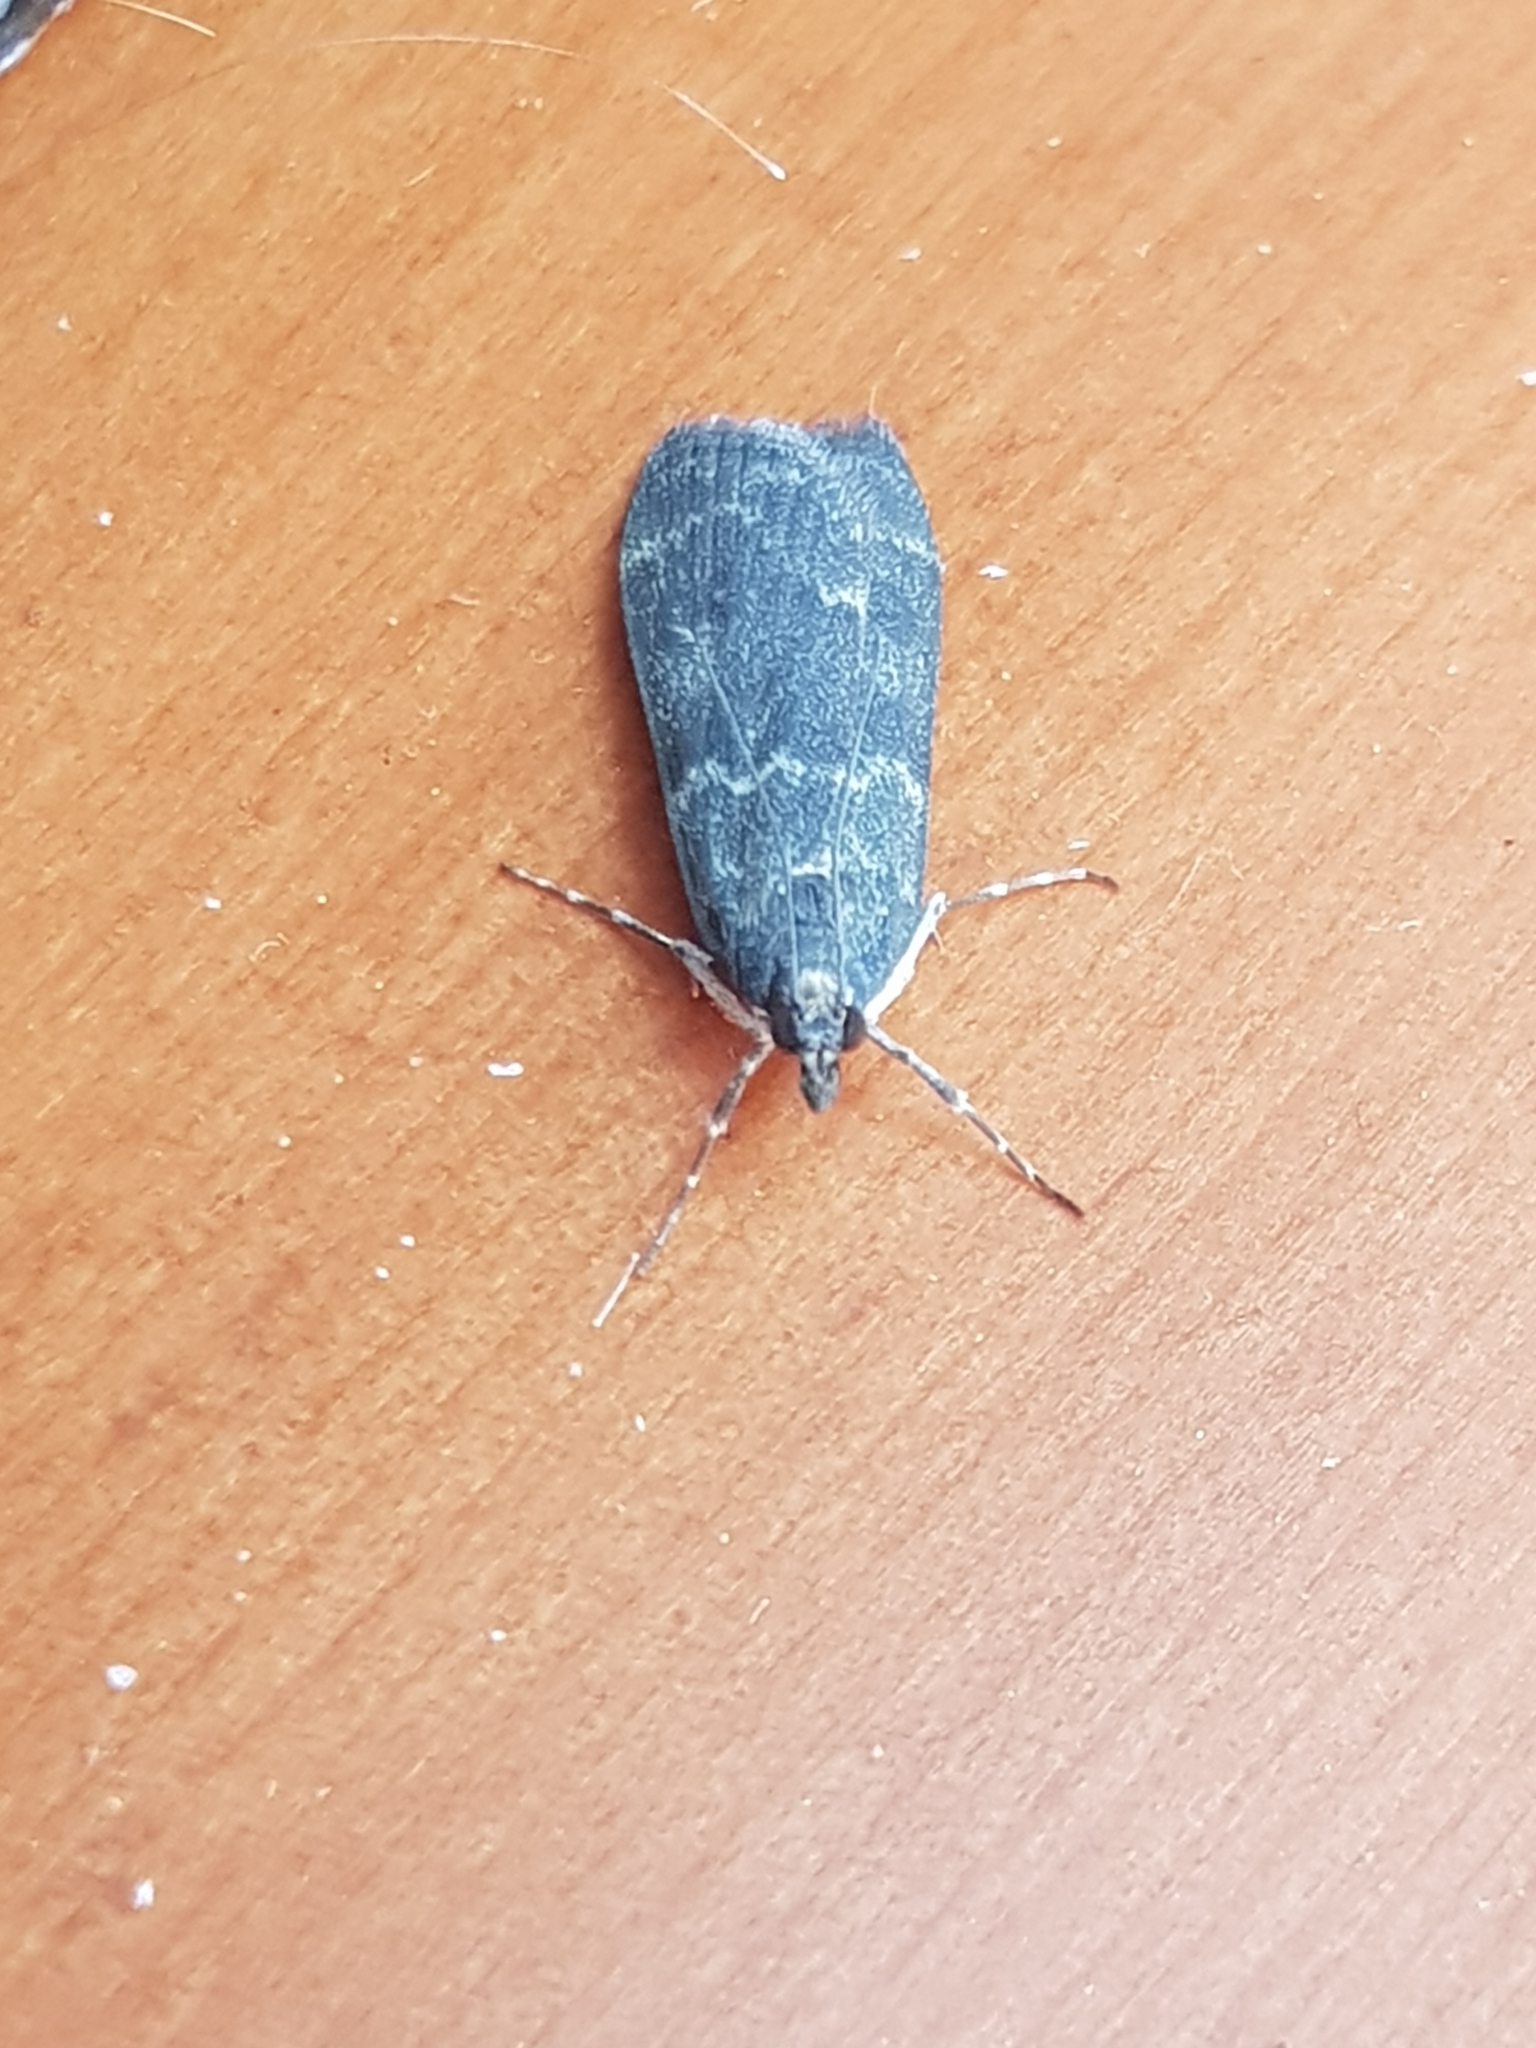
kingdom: Animalia
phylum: Arthropoda
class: Insecta
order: Lepidoptera
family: Crambidae
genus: Eudonia
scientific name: Eudonia cataxesta
